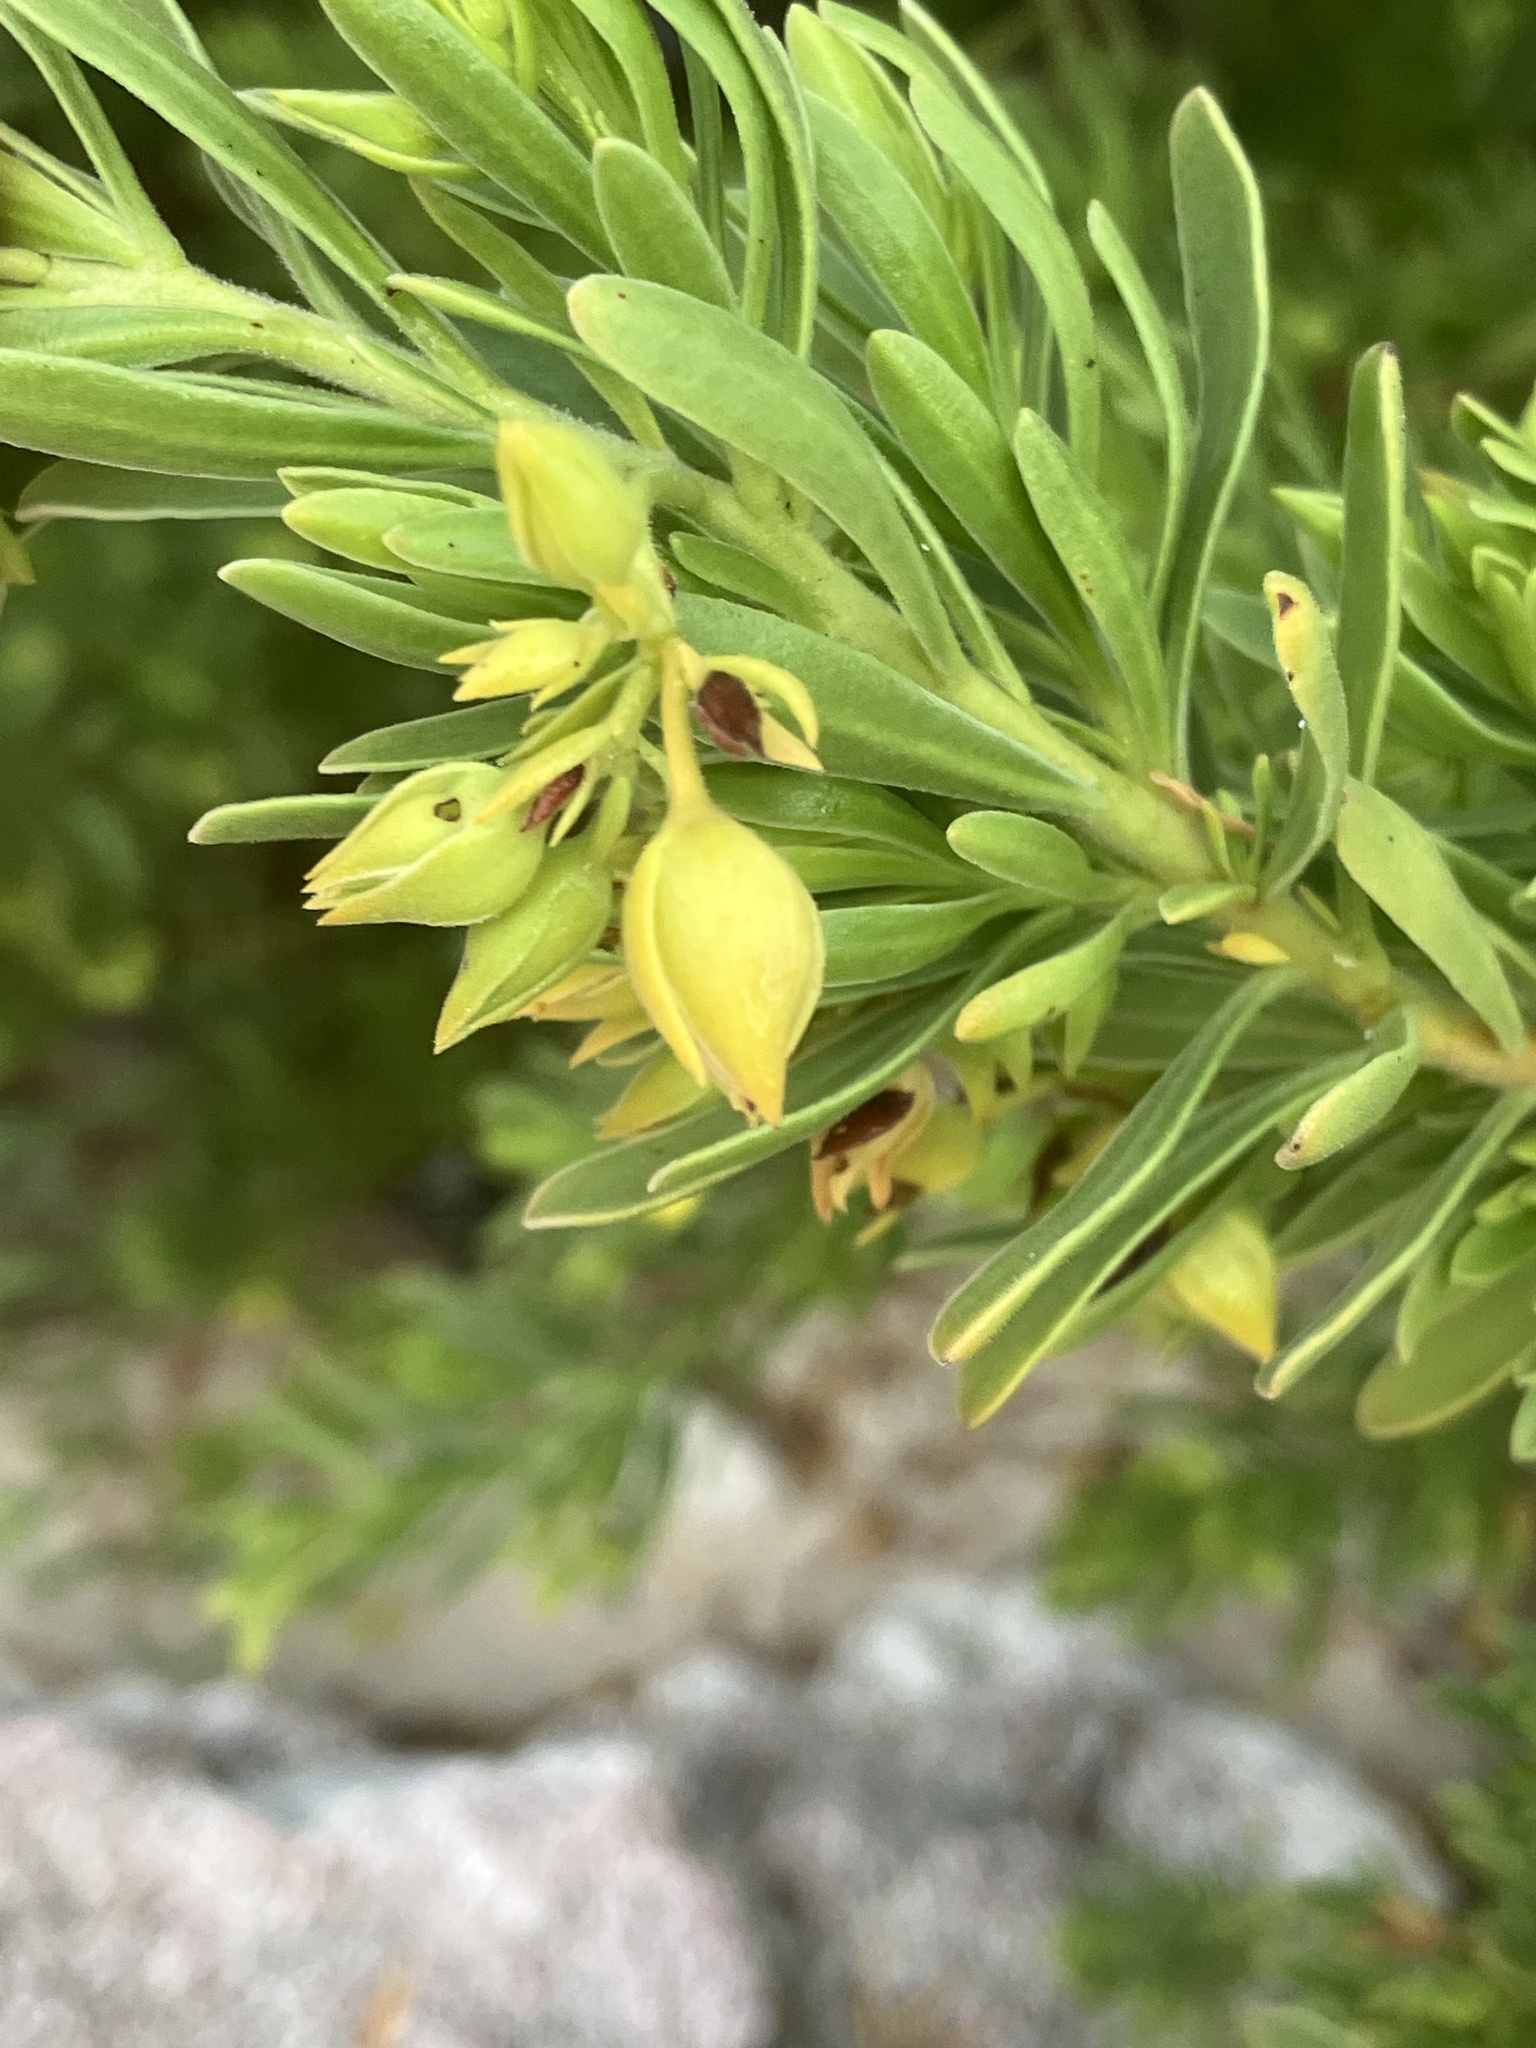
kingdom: Plantae
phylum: Tracheophyta
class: Magnoliopsida
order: Fabales
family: Surianaceae
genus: Suriana
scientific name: Suriana maritima
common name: Bay-cedar
